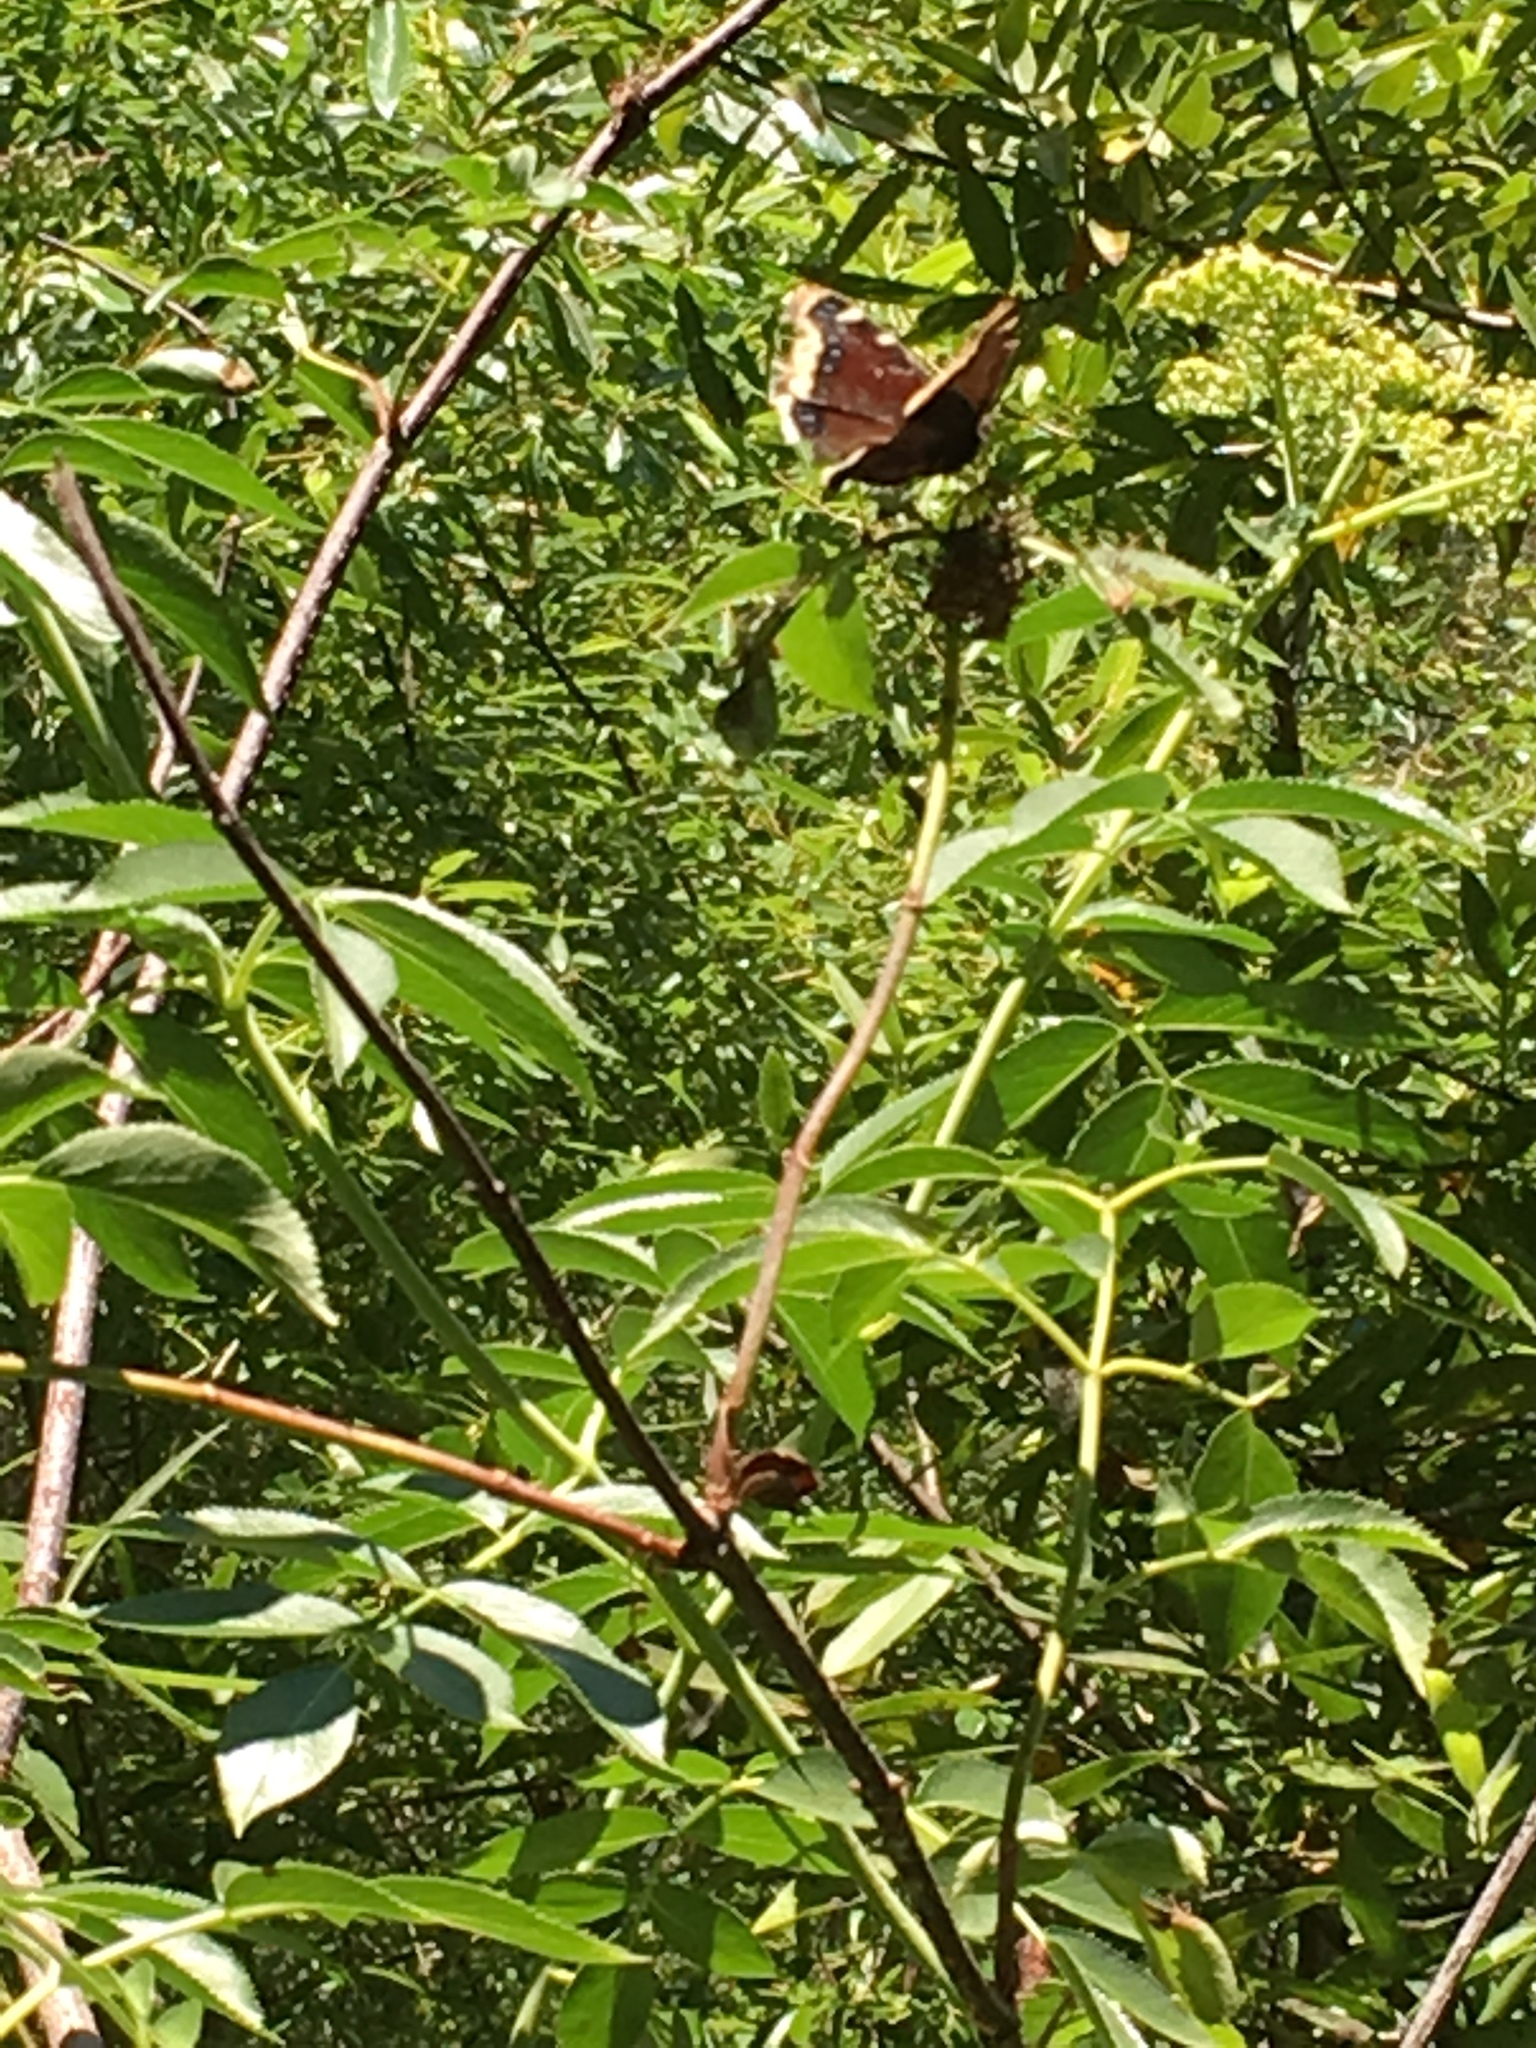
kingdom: Animalia
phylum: Arthropoda
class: Insecta
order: Lepidoptera
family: Nymphalidae
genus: Nymphalis
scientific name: Nymphalis antiopa
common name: Camberwell beauty
